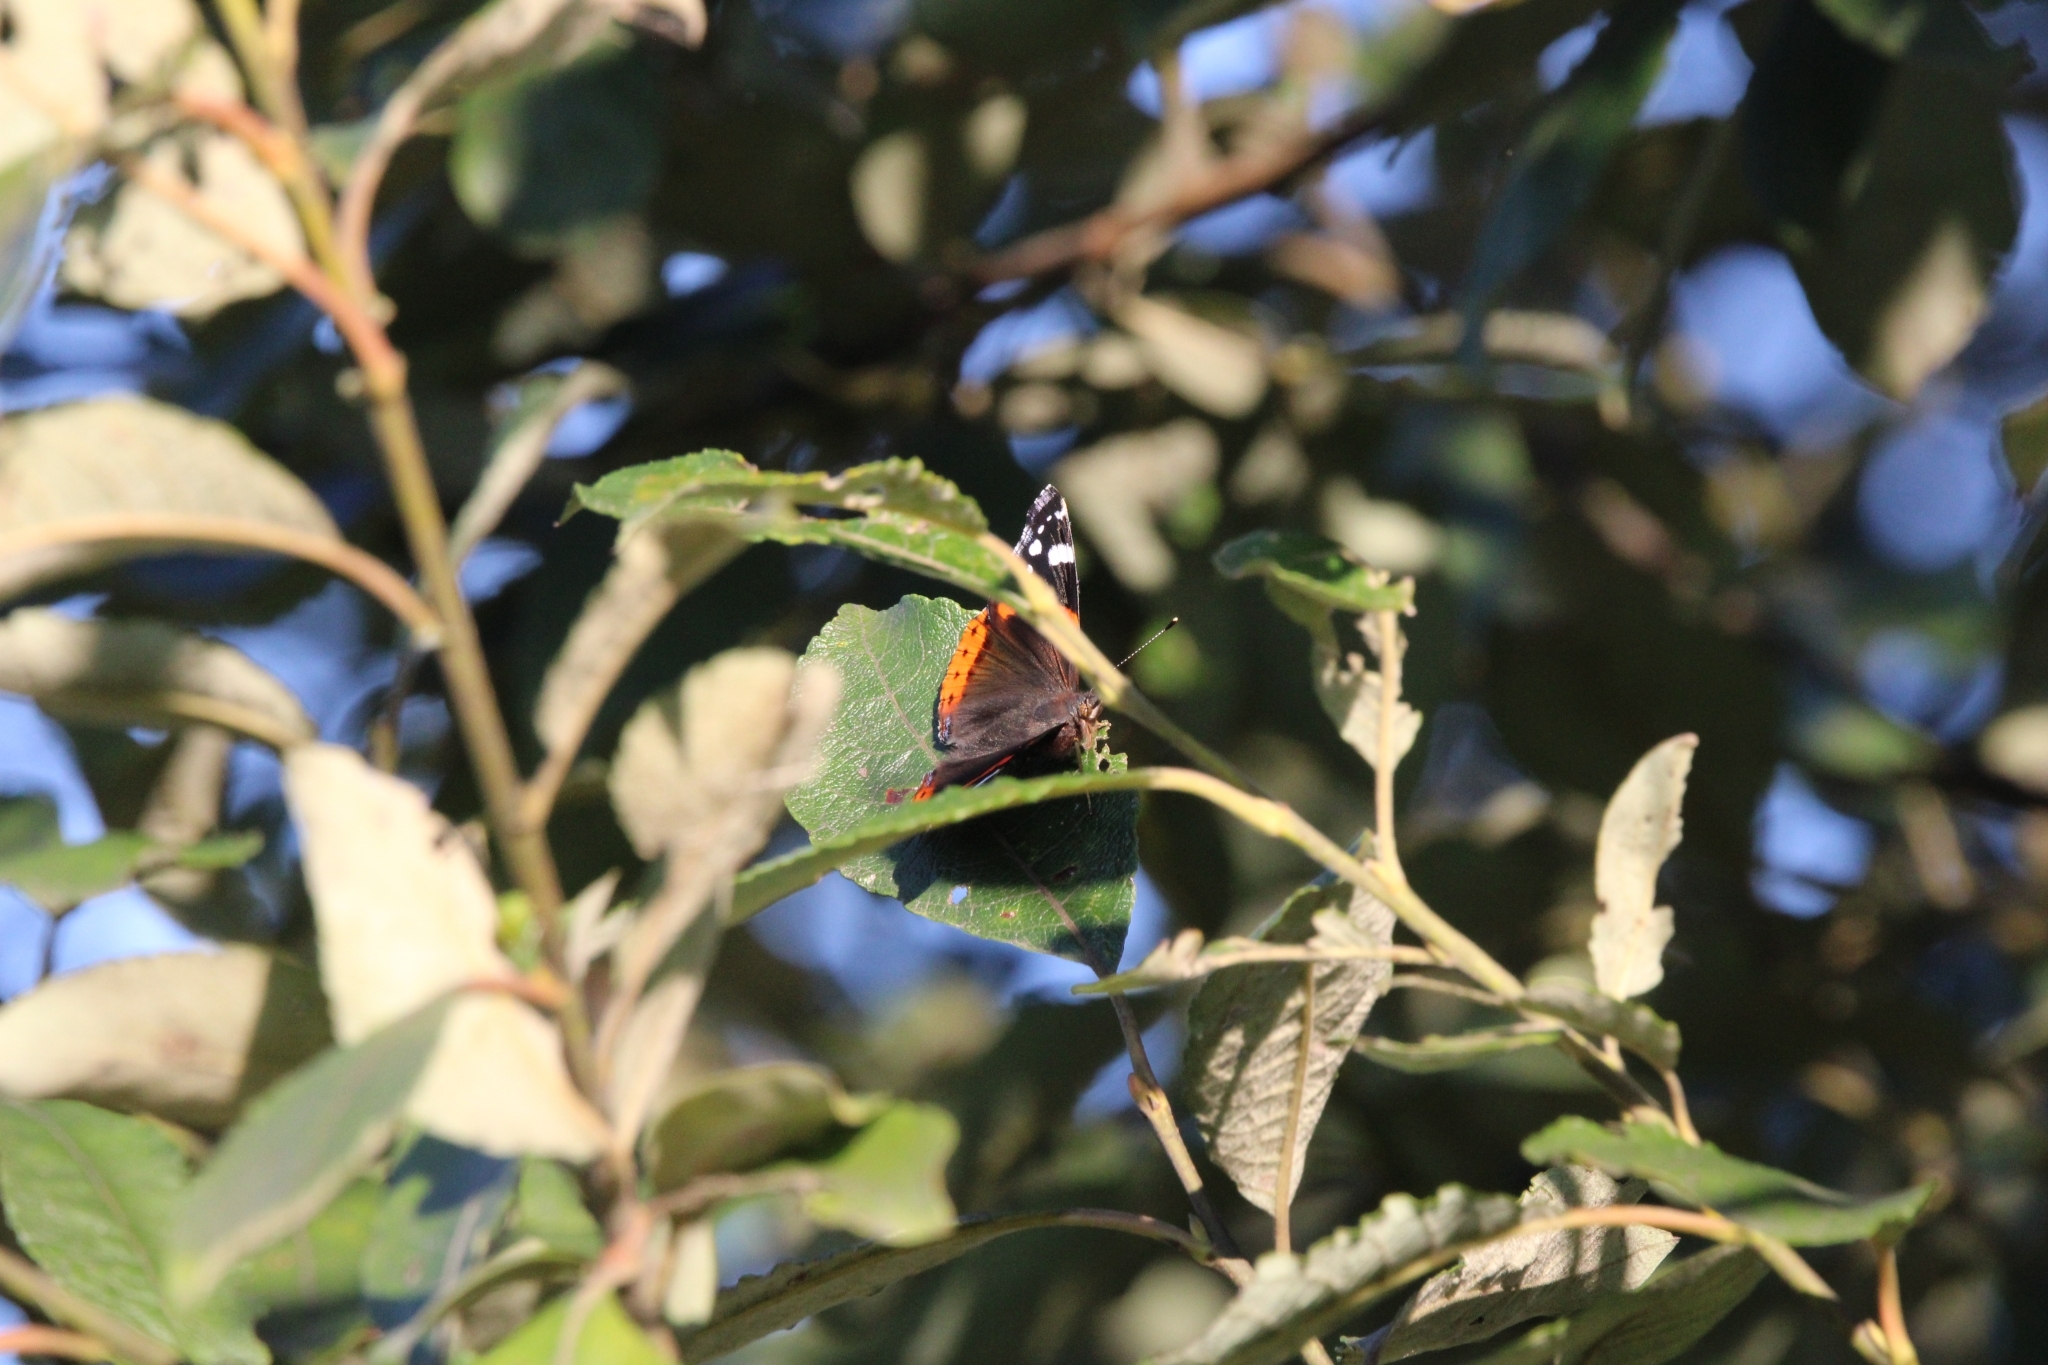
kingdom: Animalia
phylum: Arthropoda
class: Insecta
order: Lepidoptera
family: Nymphalidae
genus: Vanessa
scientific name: Vanessa atalanta
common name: Red admiral
